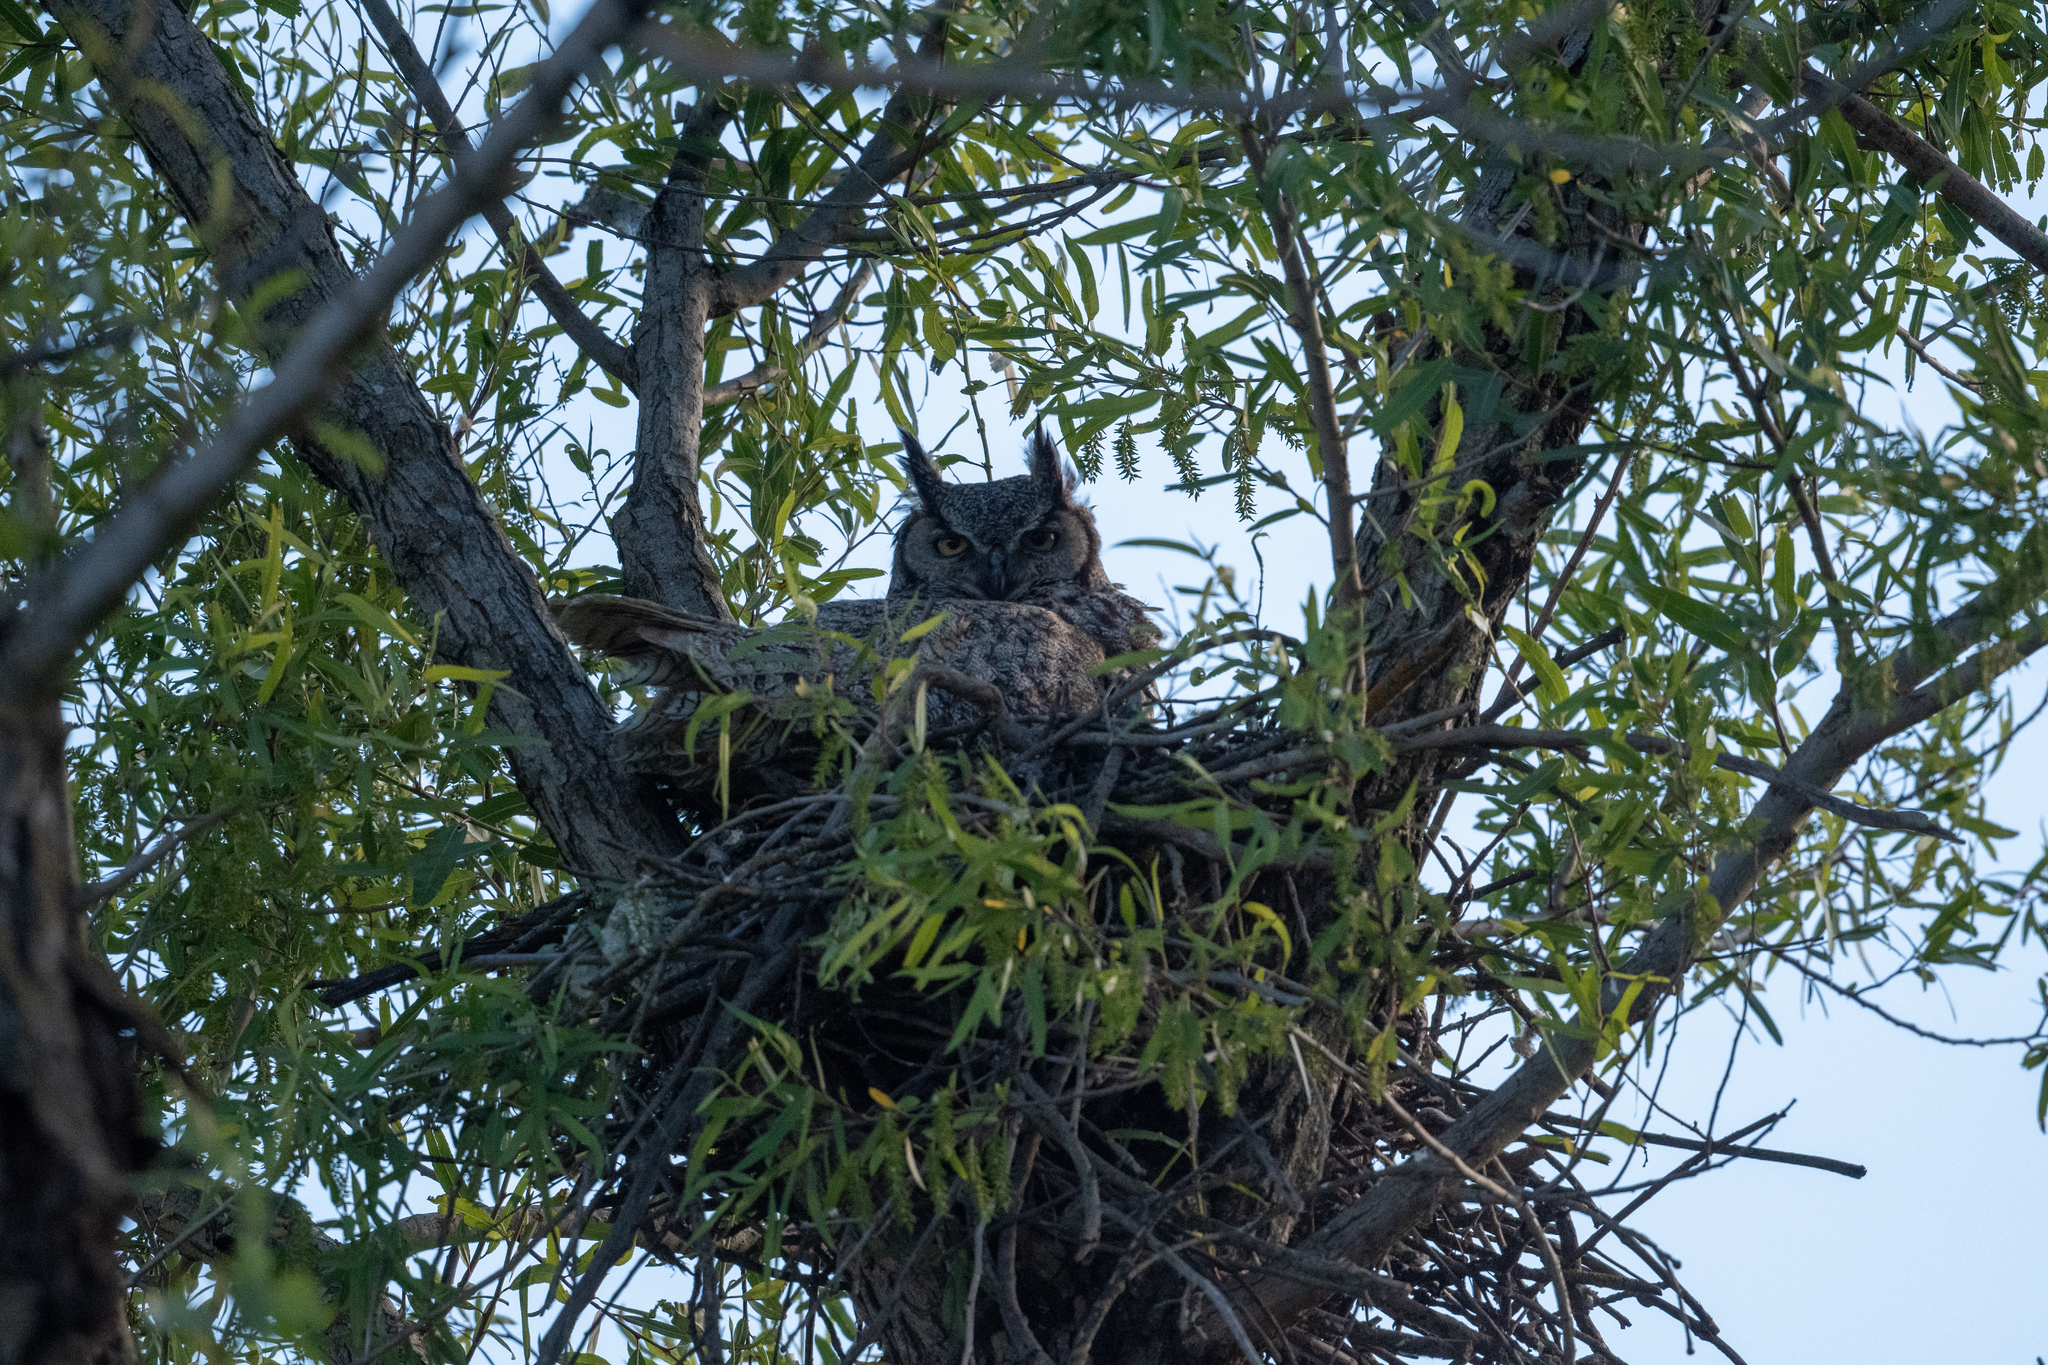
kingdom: Animalia
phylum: Chordata
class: Aves
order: Strigiformes
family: Strigidae
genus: Bubo
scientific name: Bubo virginianus
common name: Great horned owl
